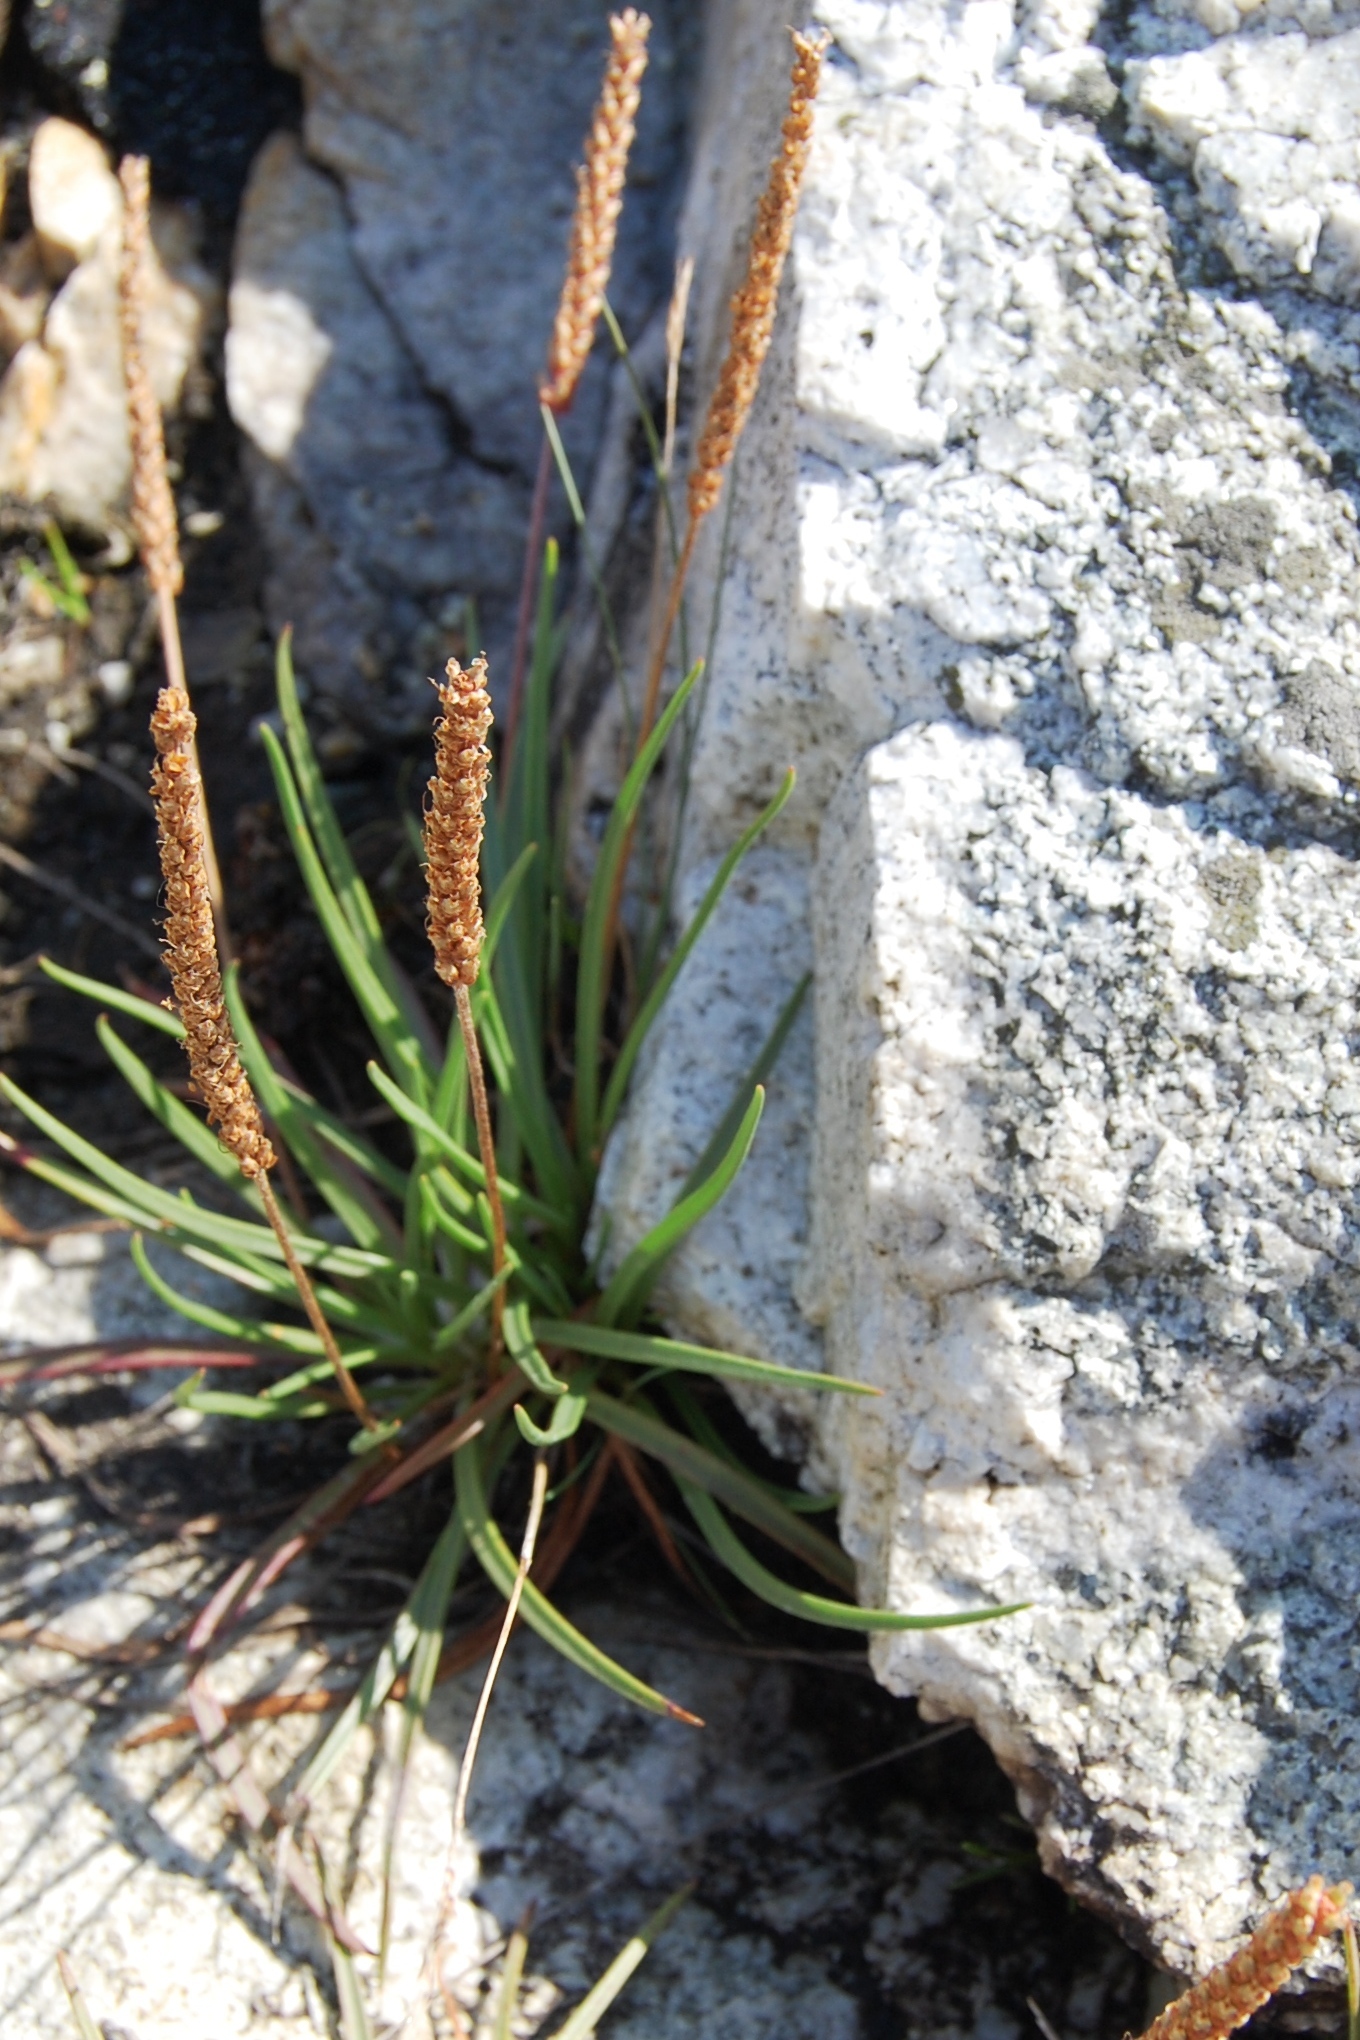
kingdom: Plantae
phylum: Tracheophyta
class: Magnoliopsida
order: Lamiales
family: Plantaginaceae
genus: Plantago
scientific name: Plantago maritima
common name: Sea plantain
